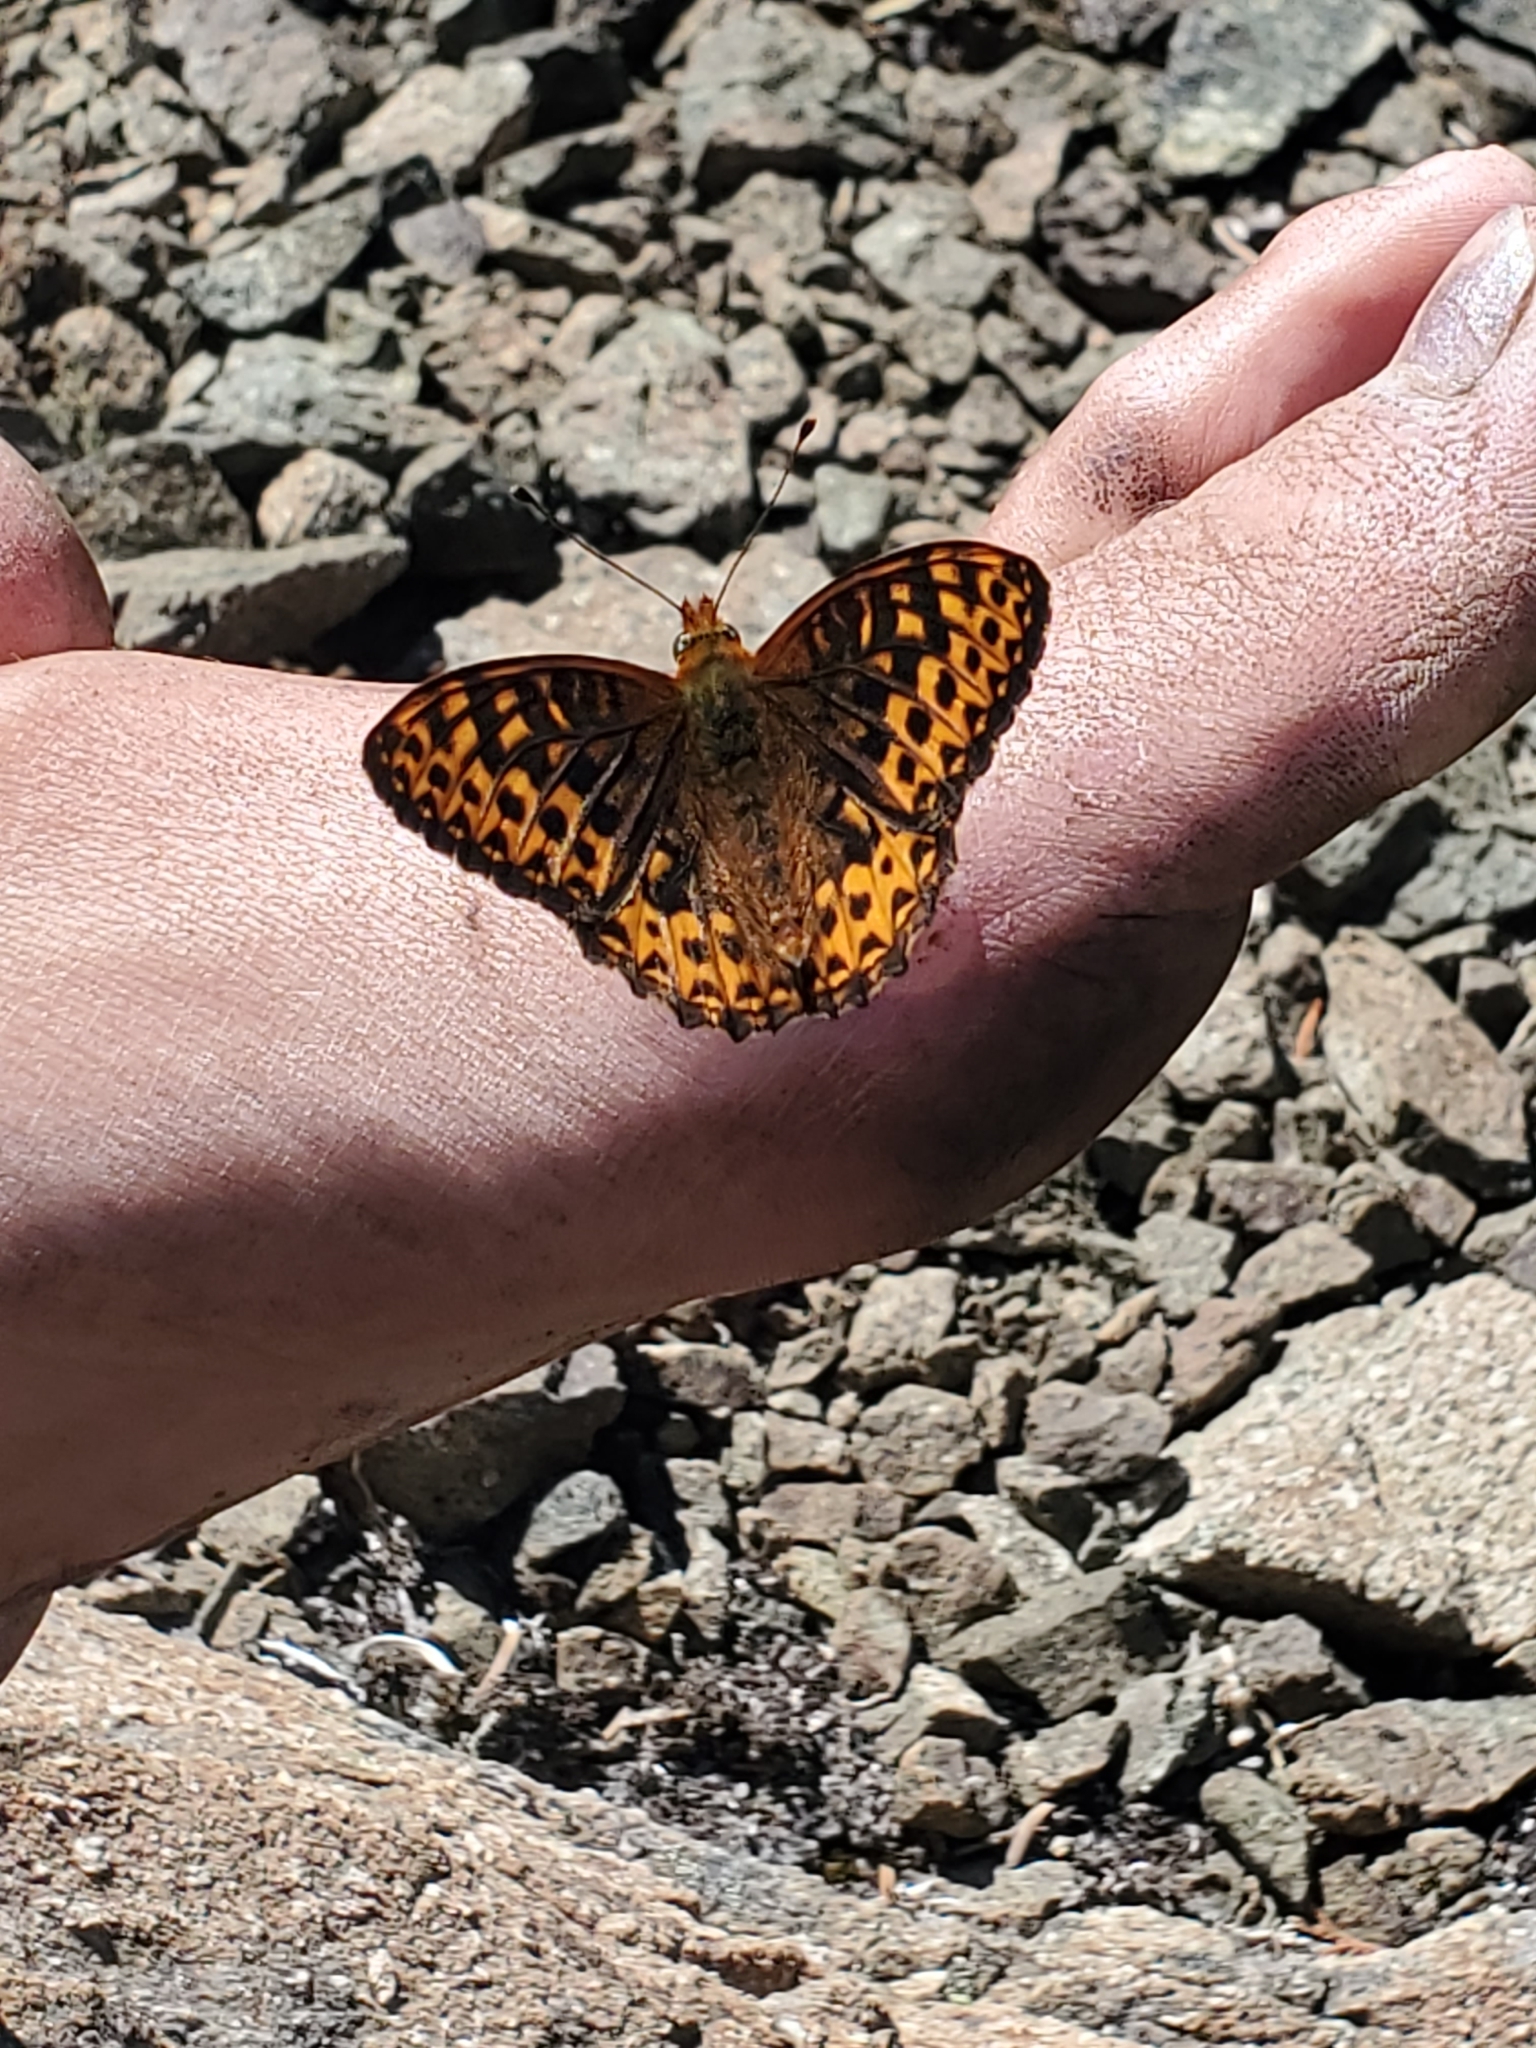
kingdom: Animalia
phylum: Arthropoda
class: Insecta
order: Lepidoptera
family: Nymphalidae
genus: Speyeria
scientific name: Speyeria hydaspe
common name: Hydaspe fritillary
